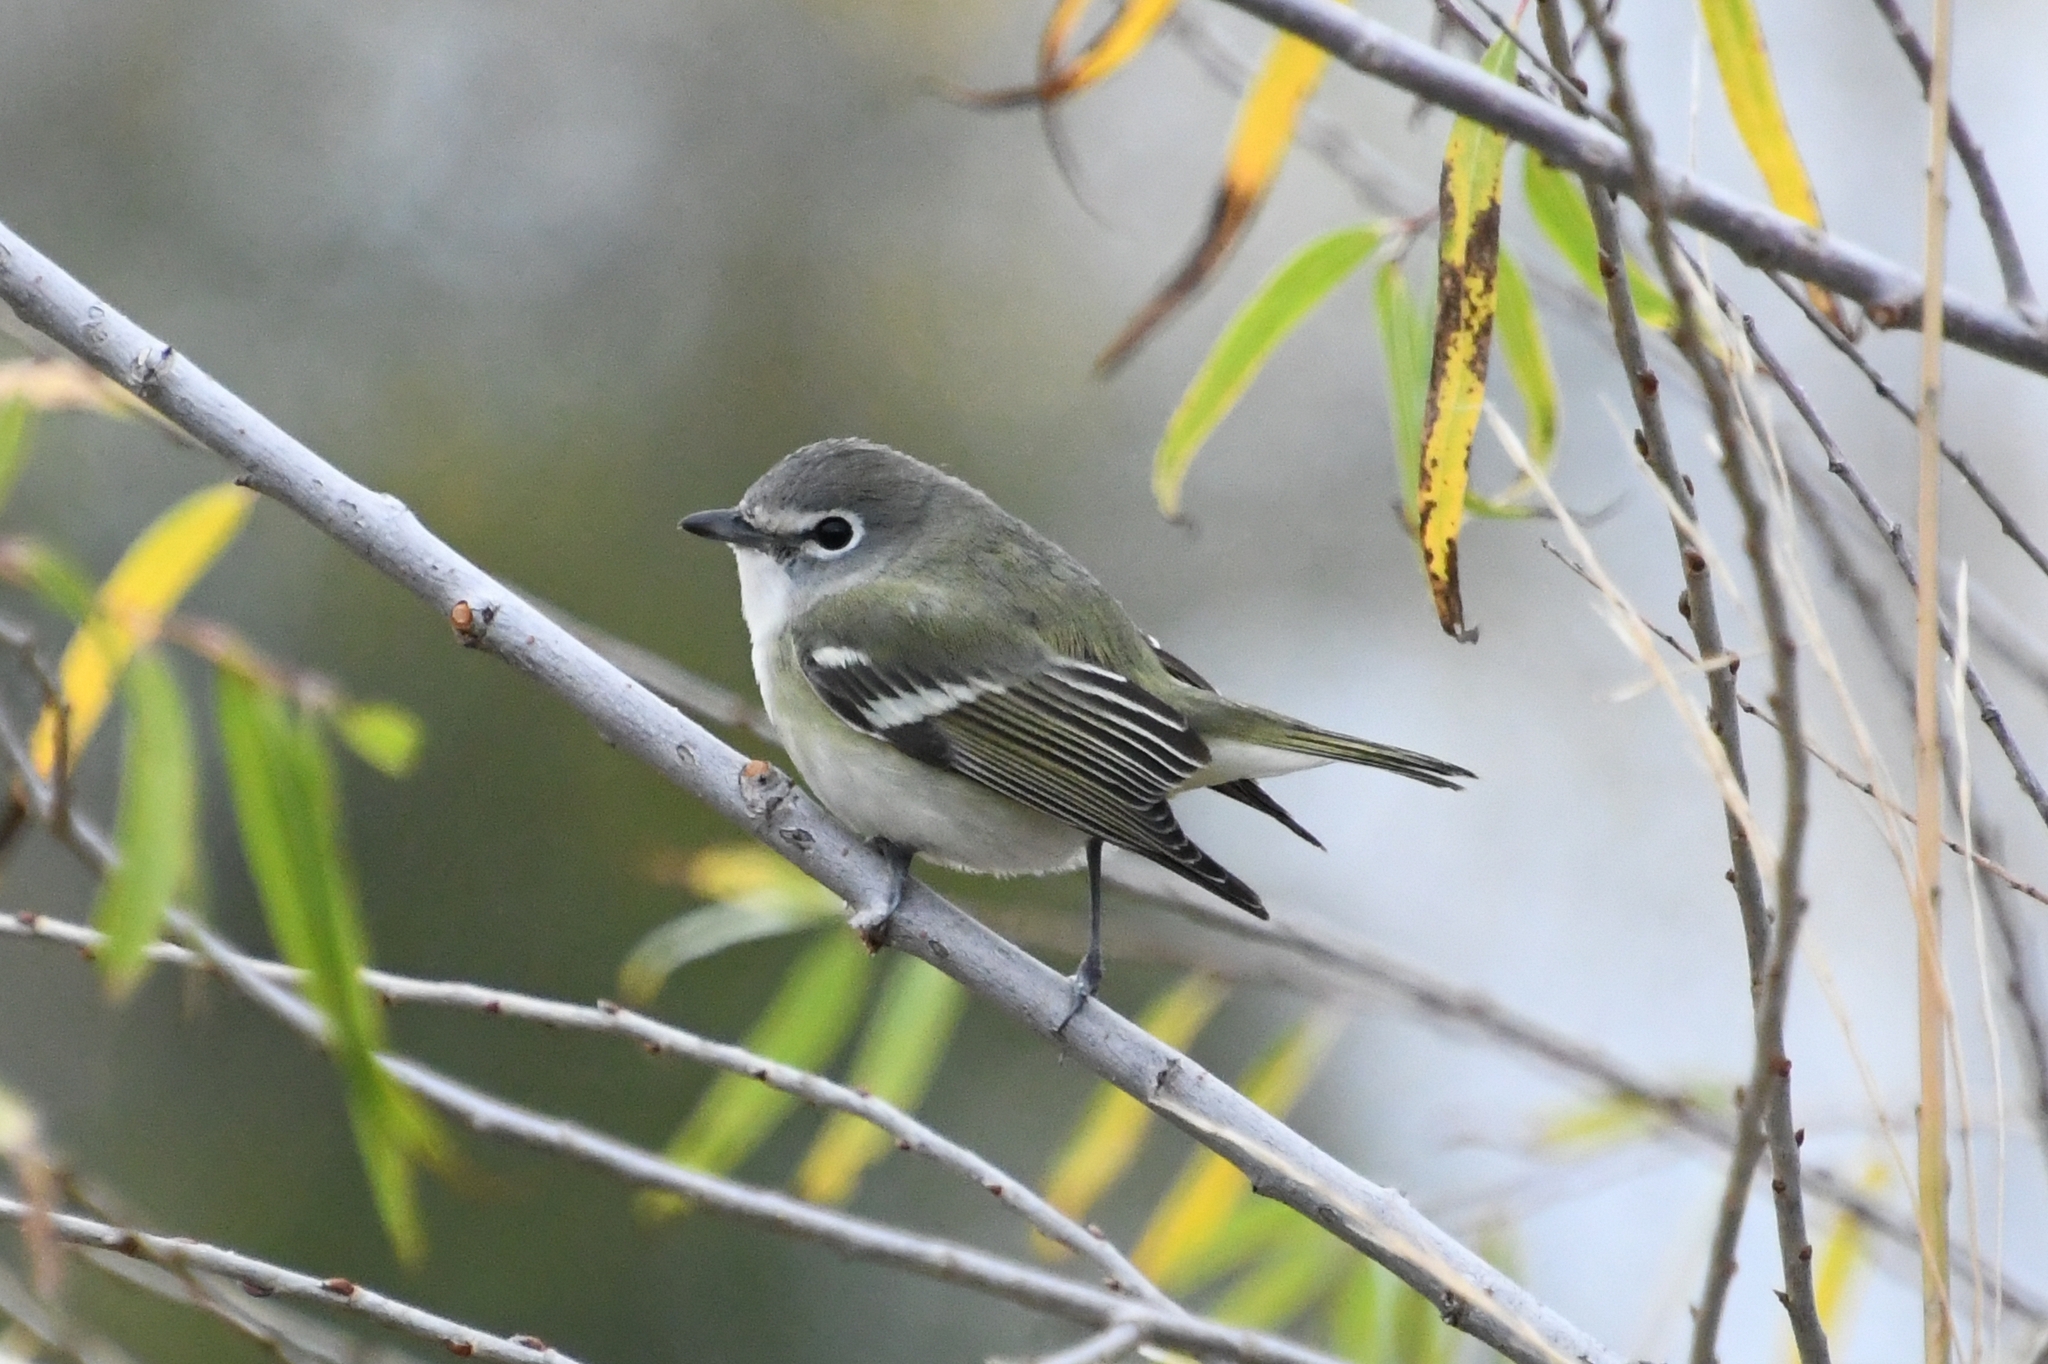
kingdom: Animalia
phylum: Chordata
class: Aves
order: Passeriformes
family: Vireonidae
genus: Vireo
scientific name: Vireo cassinii
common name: Cassin's vireo
